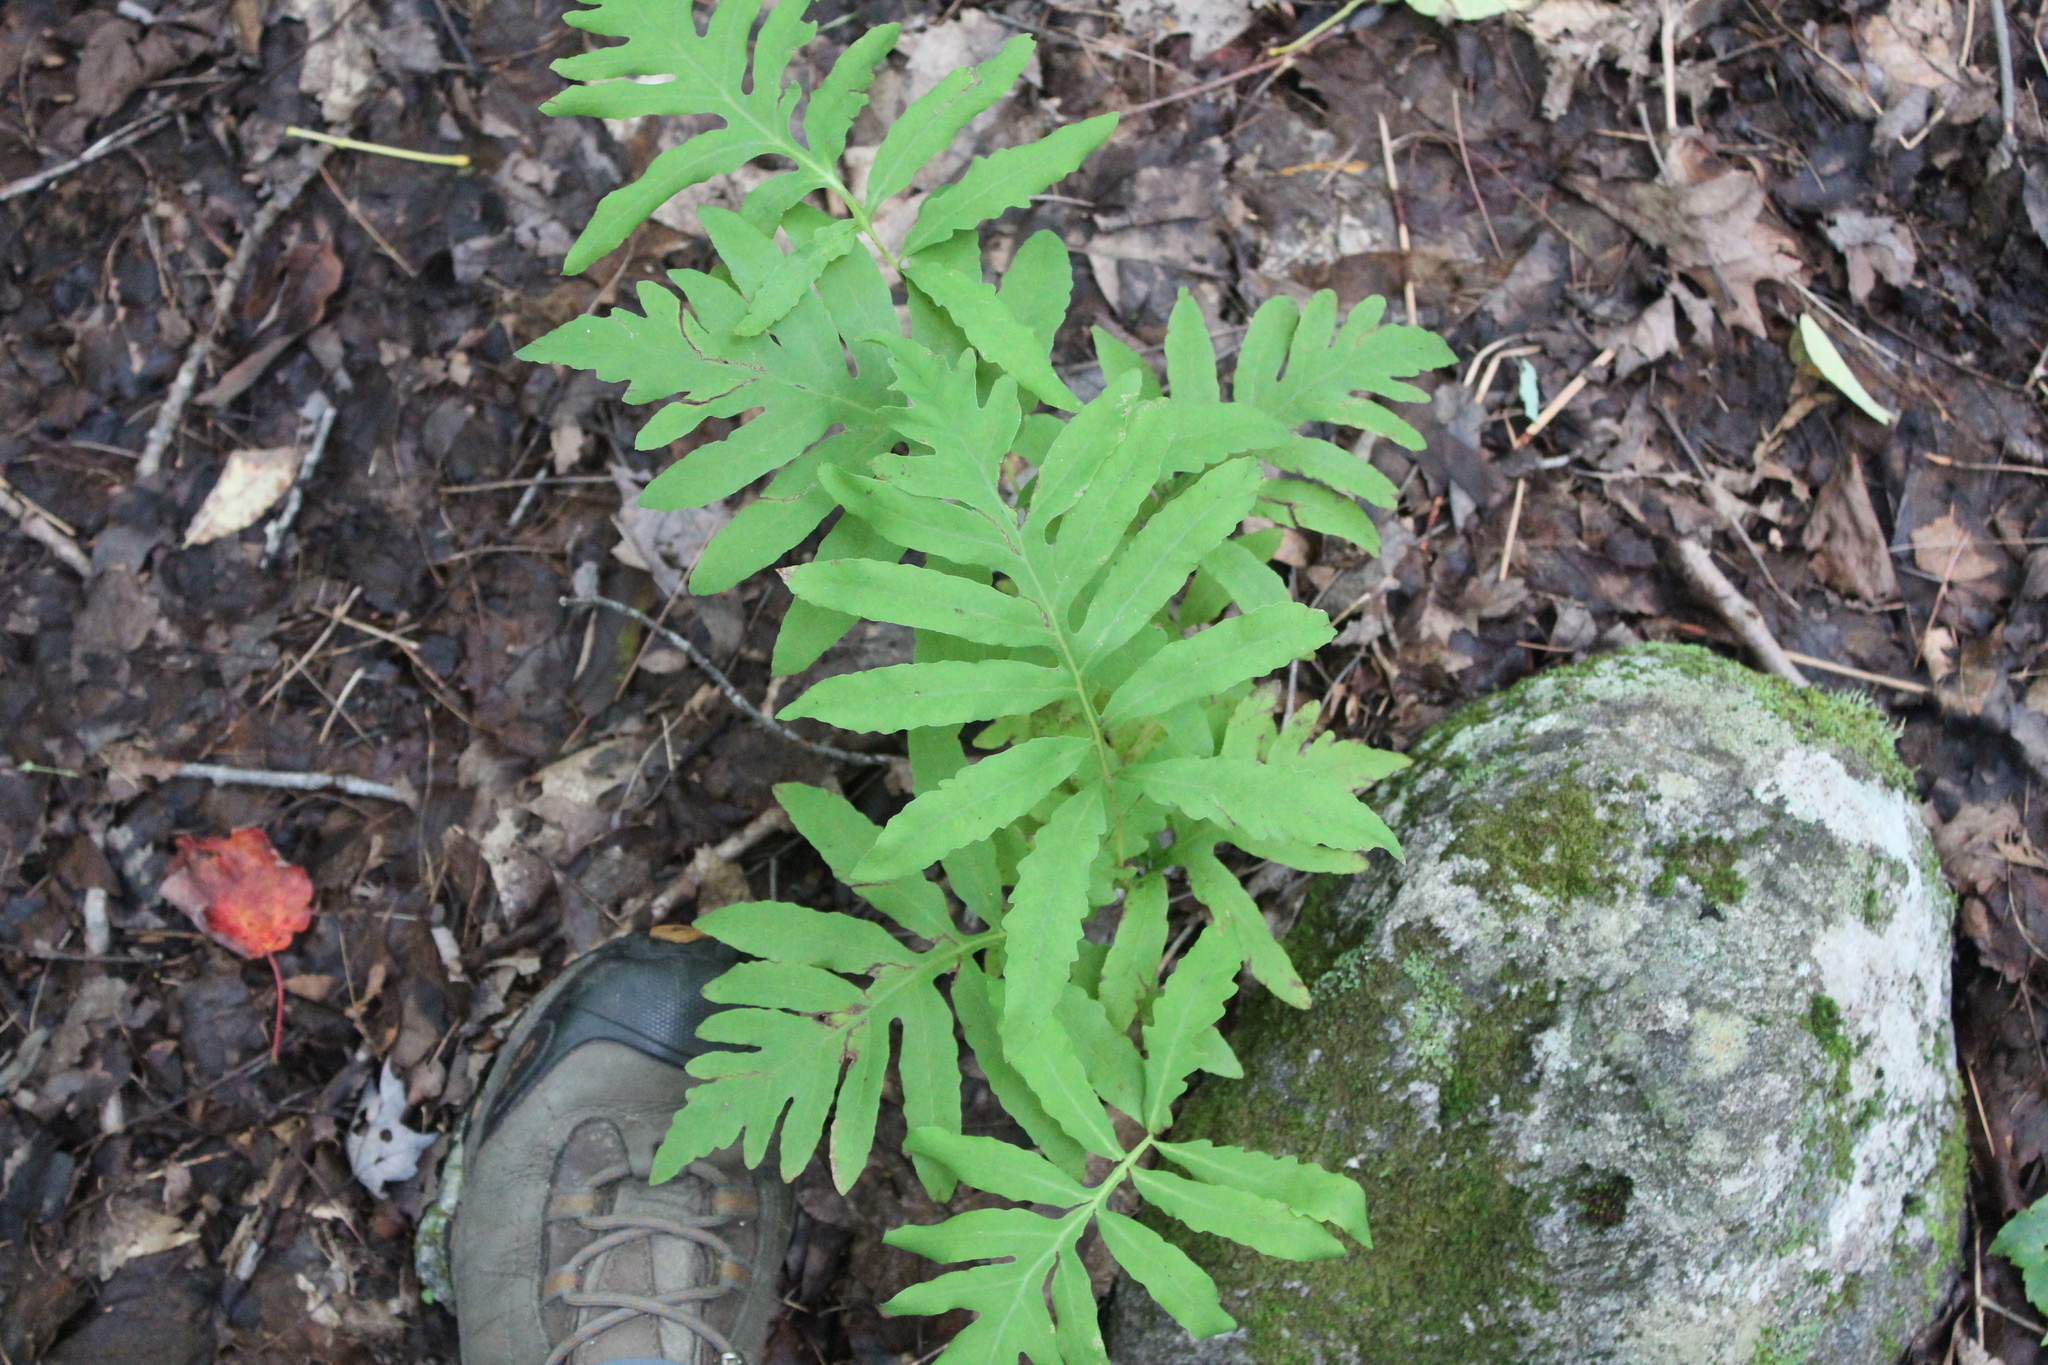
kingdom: Plantae
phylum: Tracheophyta
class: Polypodiopsida
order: Polypodiales
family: Onocleaceae
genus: Onoclea
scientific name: Onoclea sensibilis
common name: Sensitive fern
